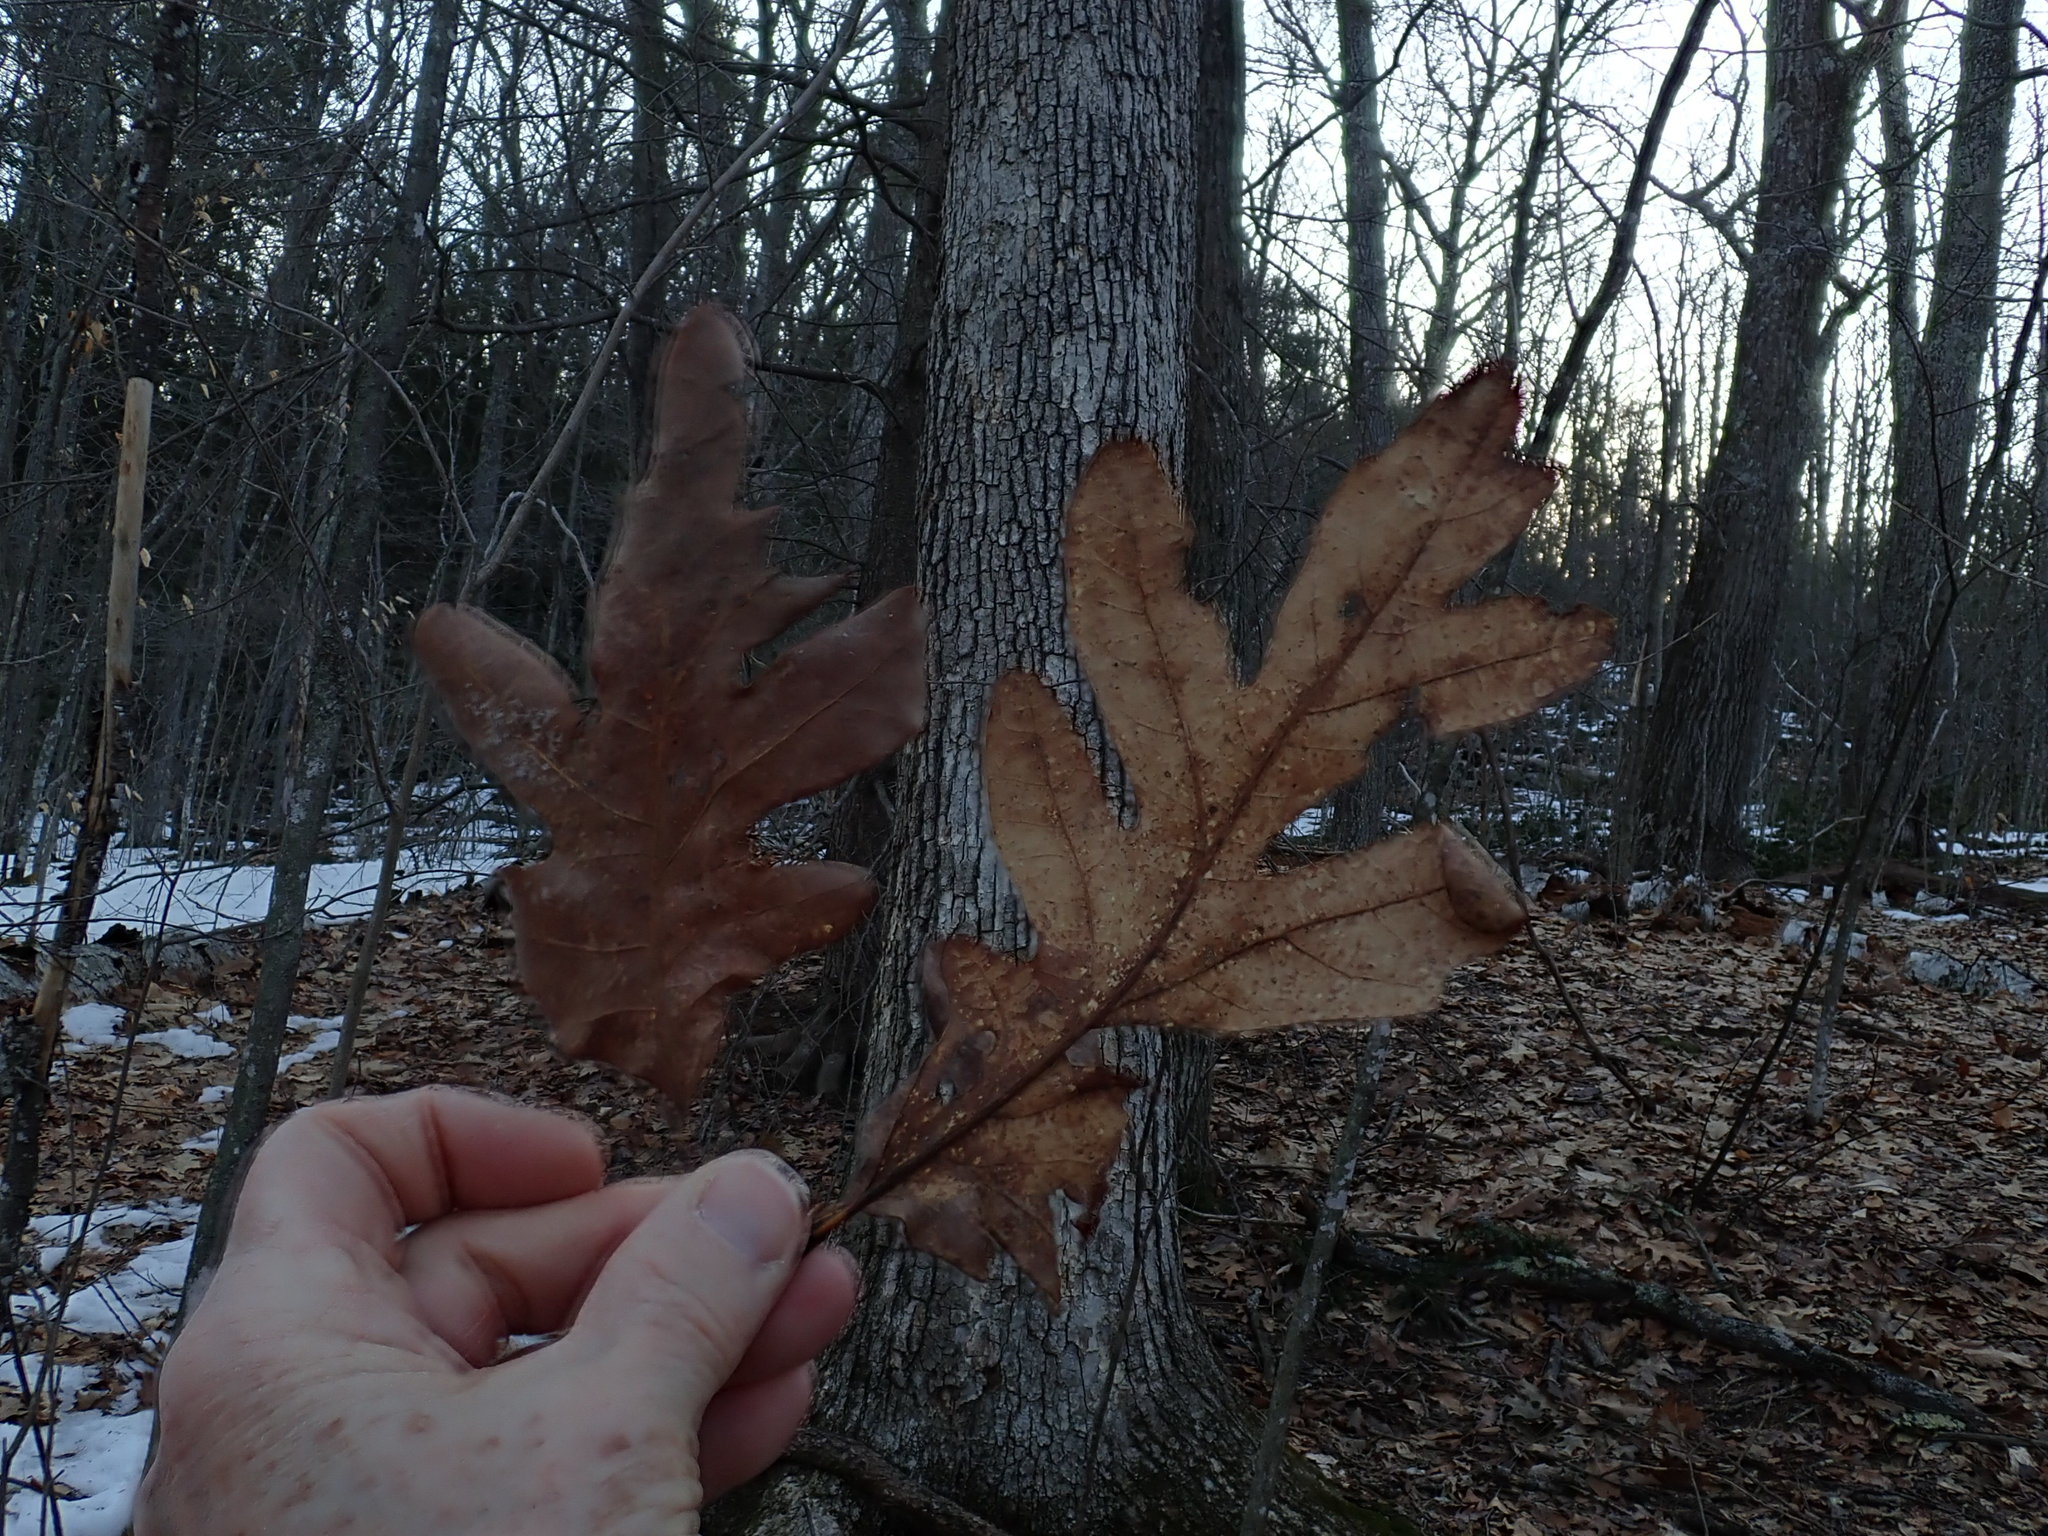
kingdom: Plantae
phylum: Tracheophyta
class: Magnoliopsida
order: Fagales
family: Fagaceae
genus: Quercus
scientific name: Quercus alba
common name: White oak
